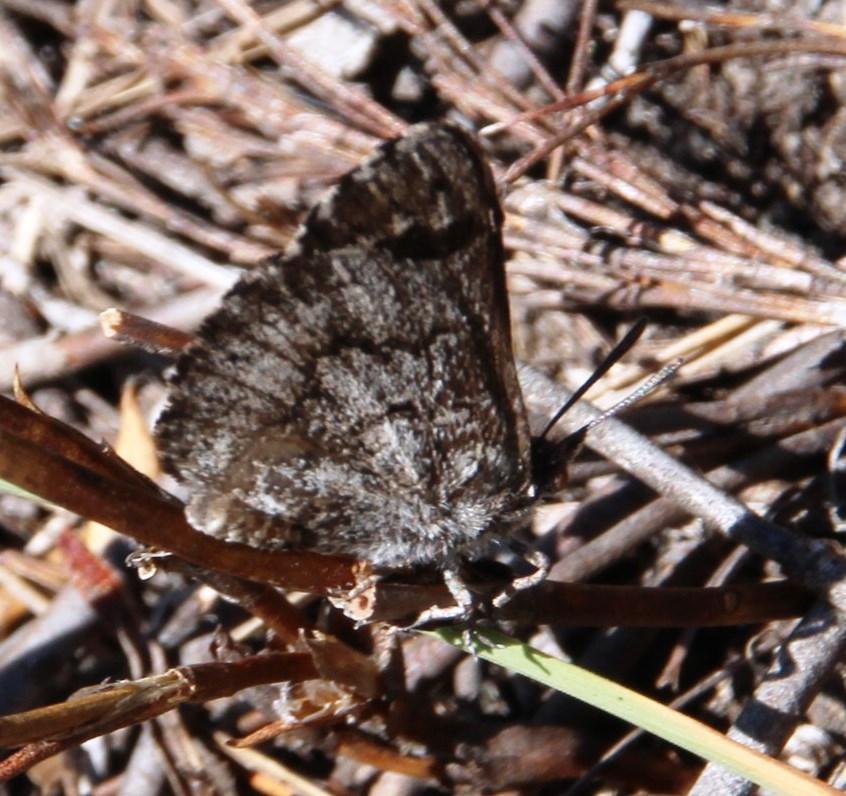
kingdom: Animalia
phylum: Arthropoda
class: Insecta
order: Lepidoptera
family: Lycaenidae
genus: Thestor
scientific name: Thestor holmesi
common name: Holmes' skolly
